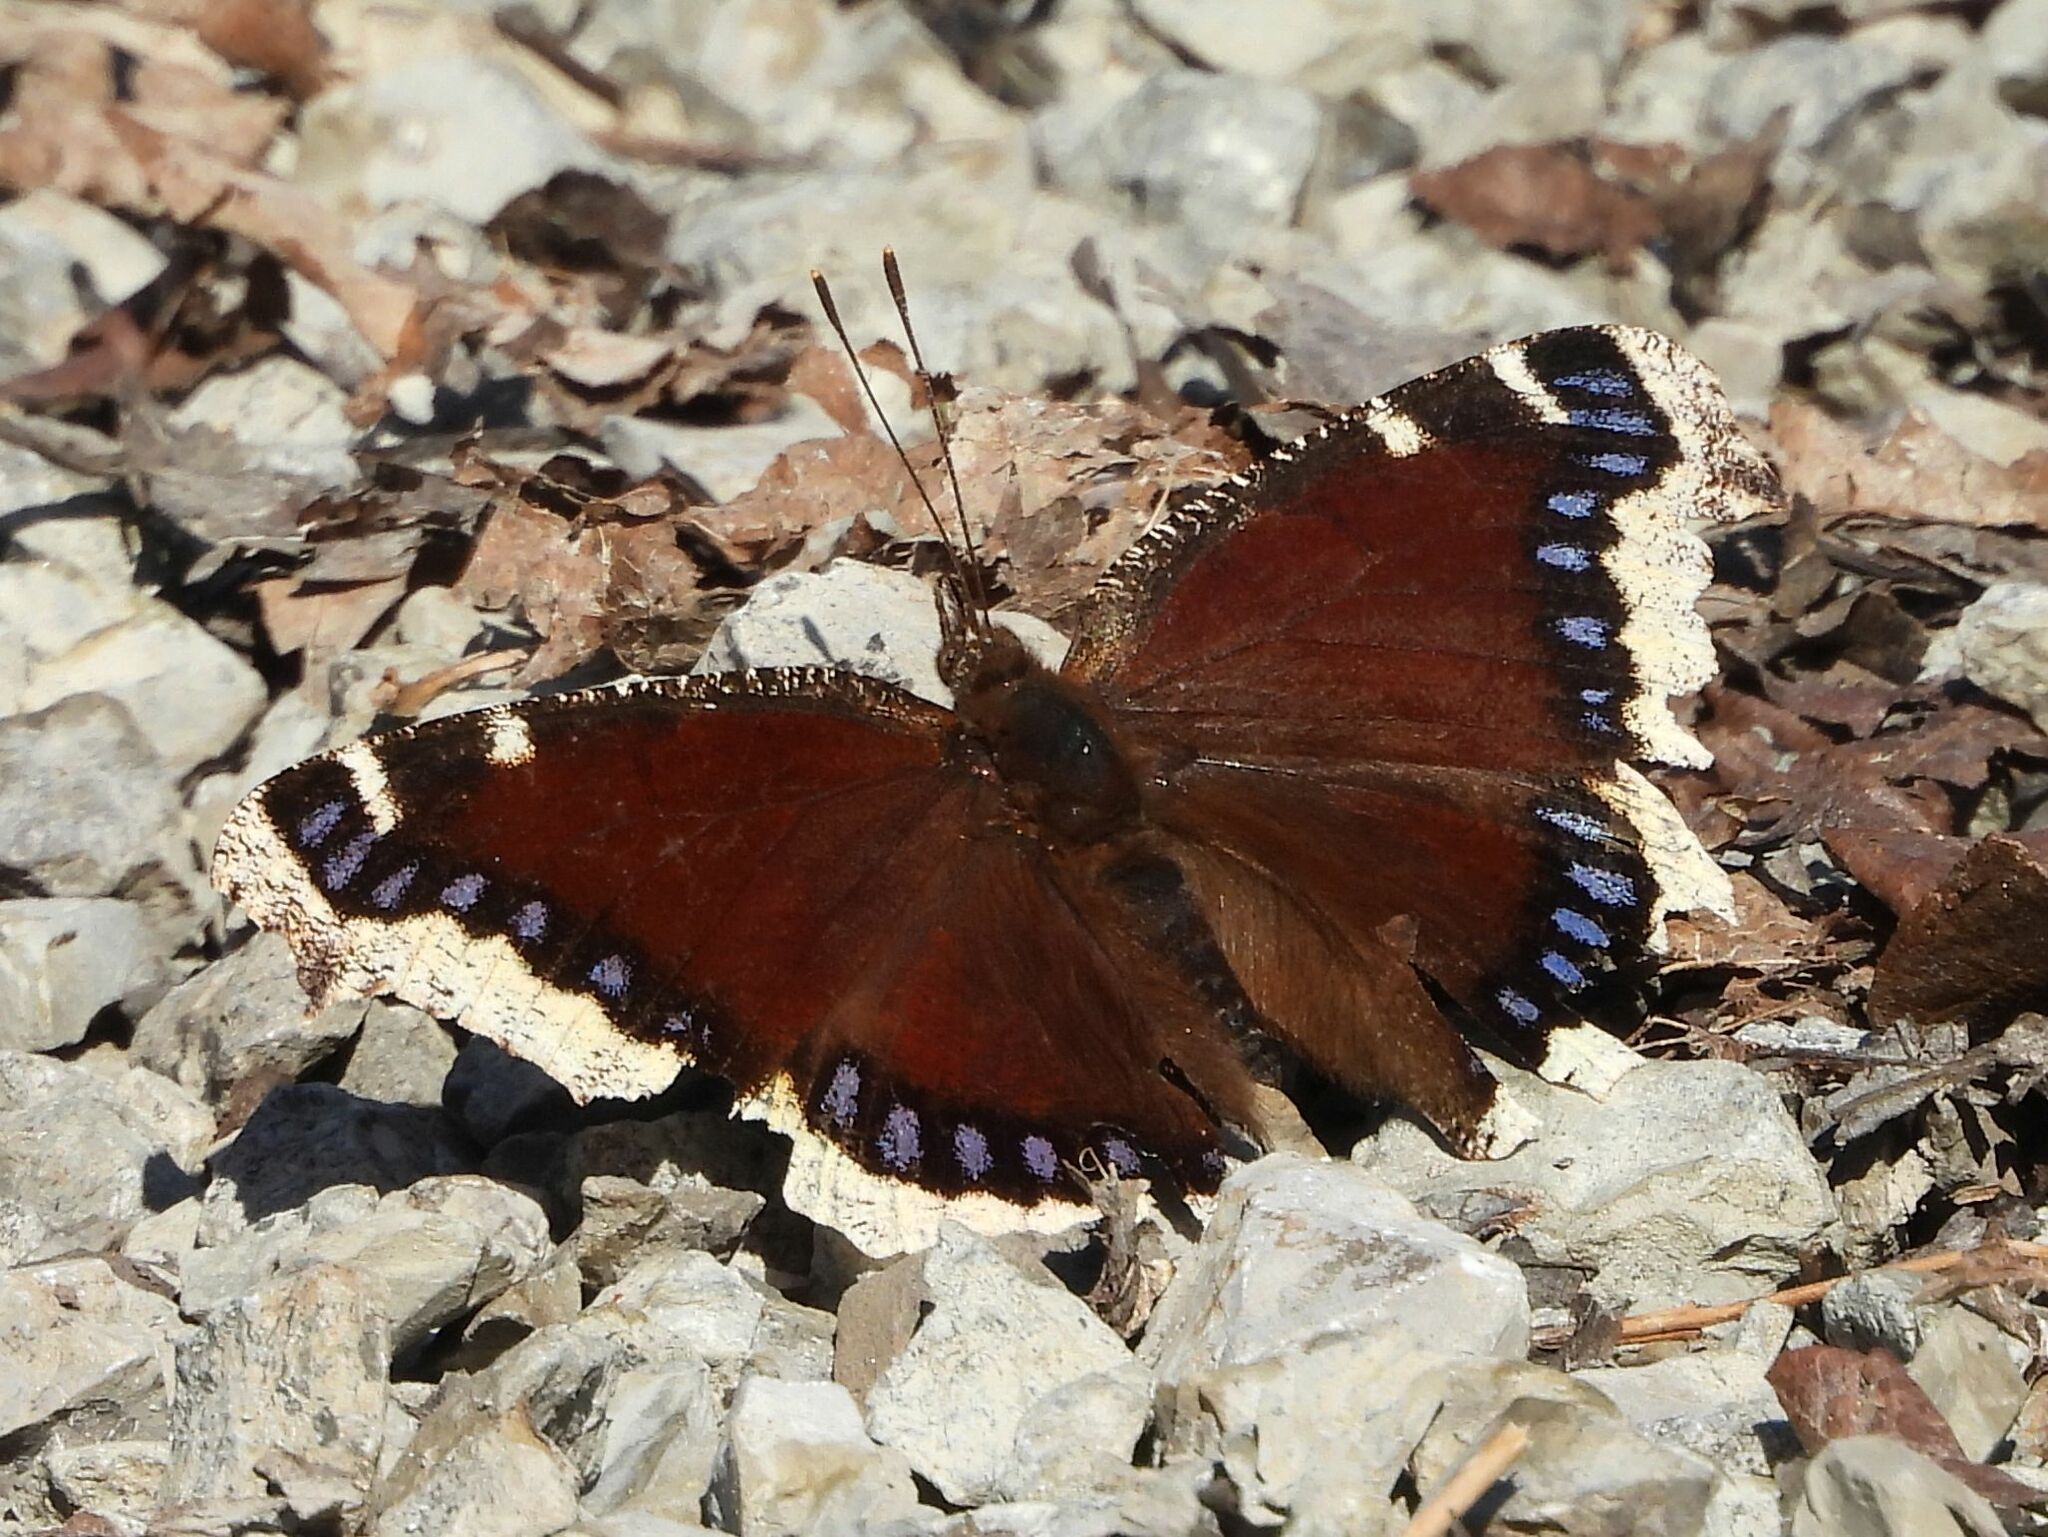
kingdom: Animalia
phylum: Arthropoda
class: Insecta
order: Lepidoptera
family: Nymphalidae
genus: Nymphalis
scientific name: Nymphalis antiopa
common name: Camberwell beauty
